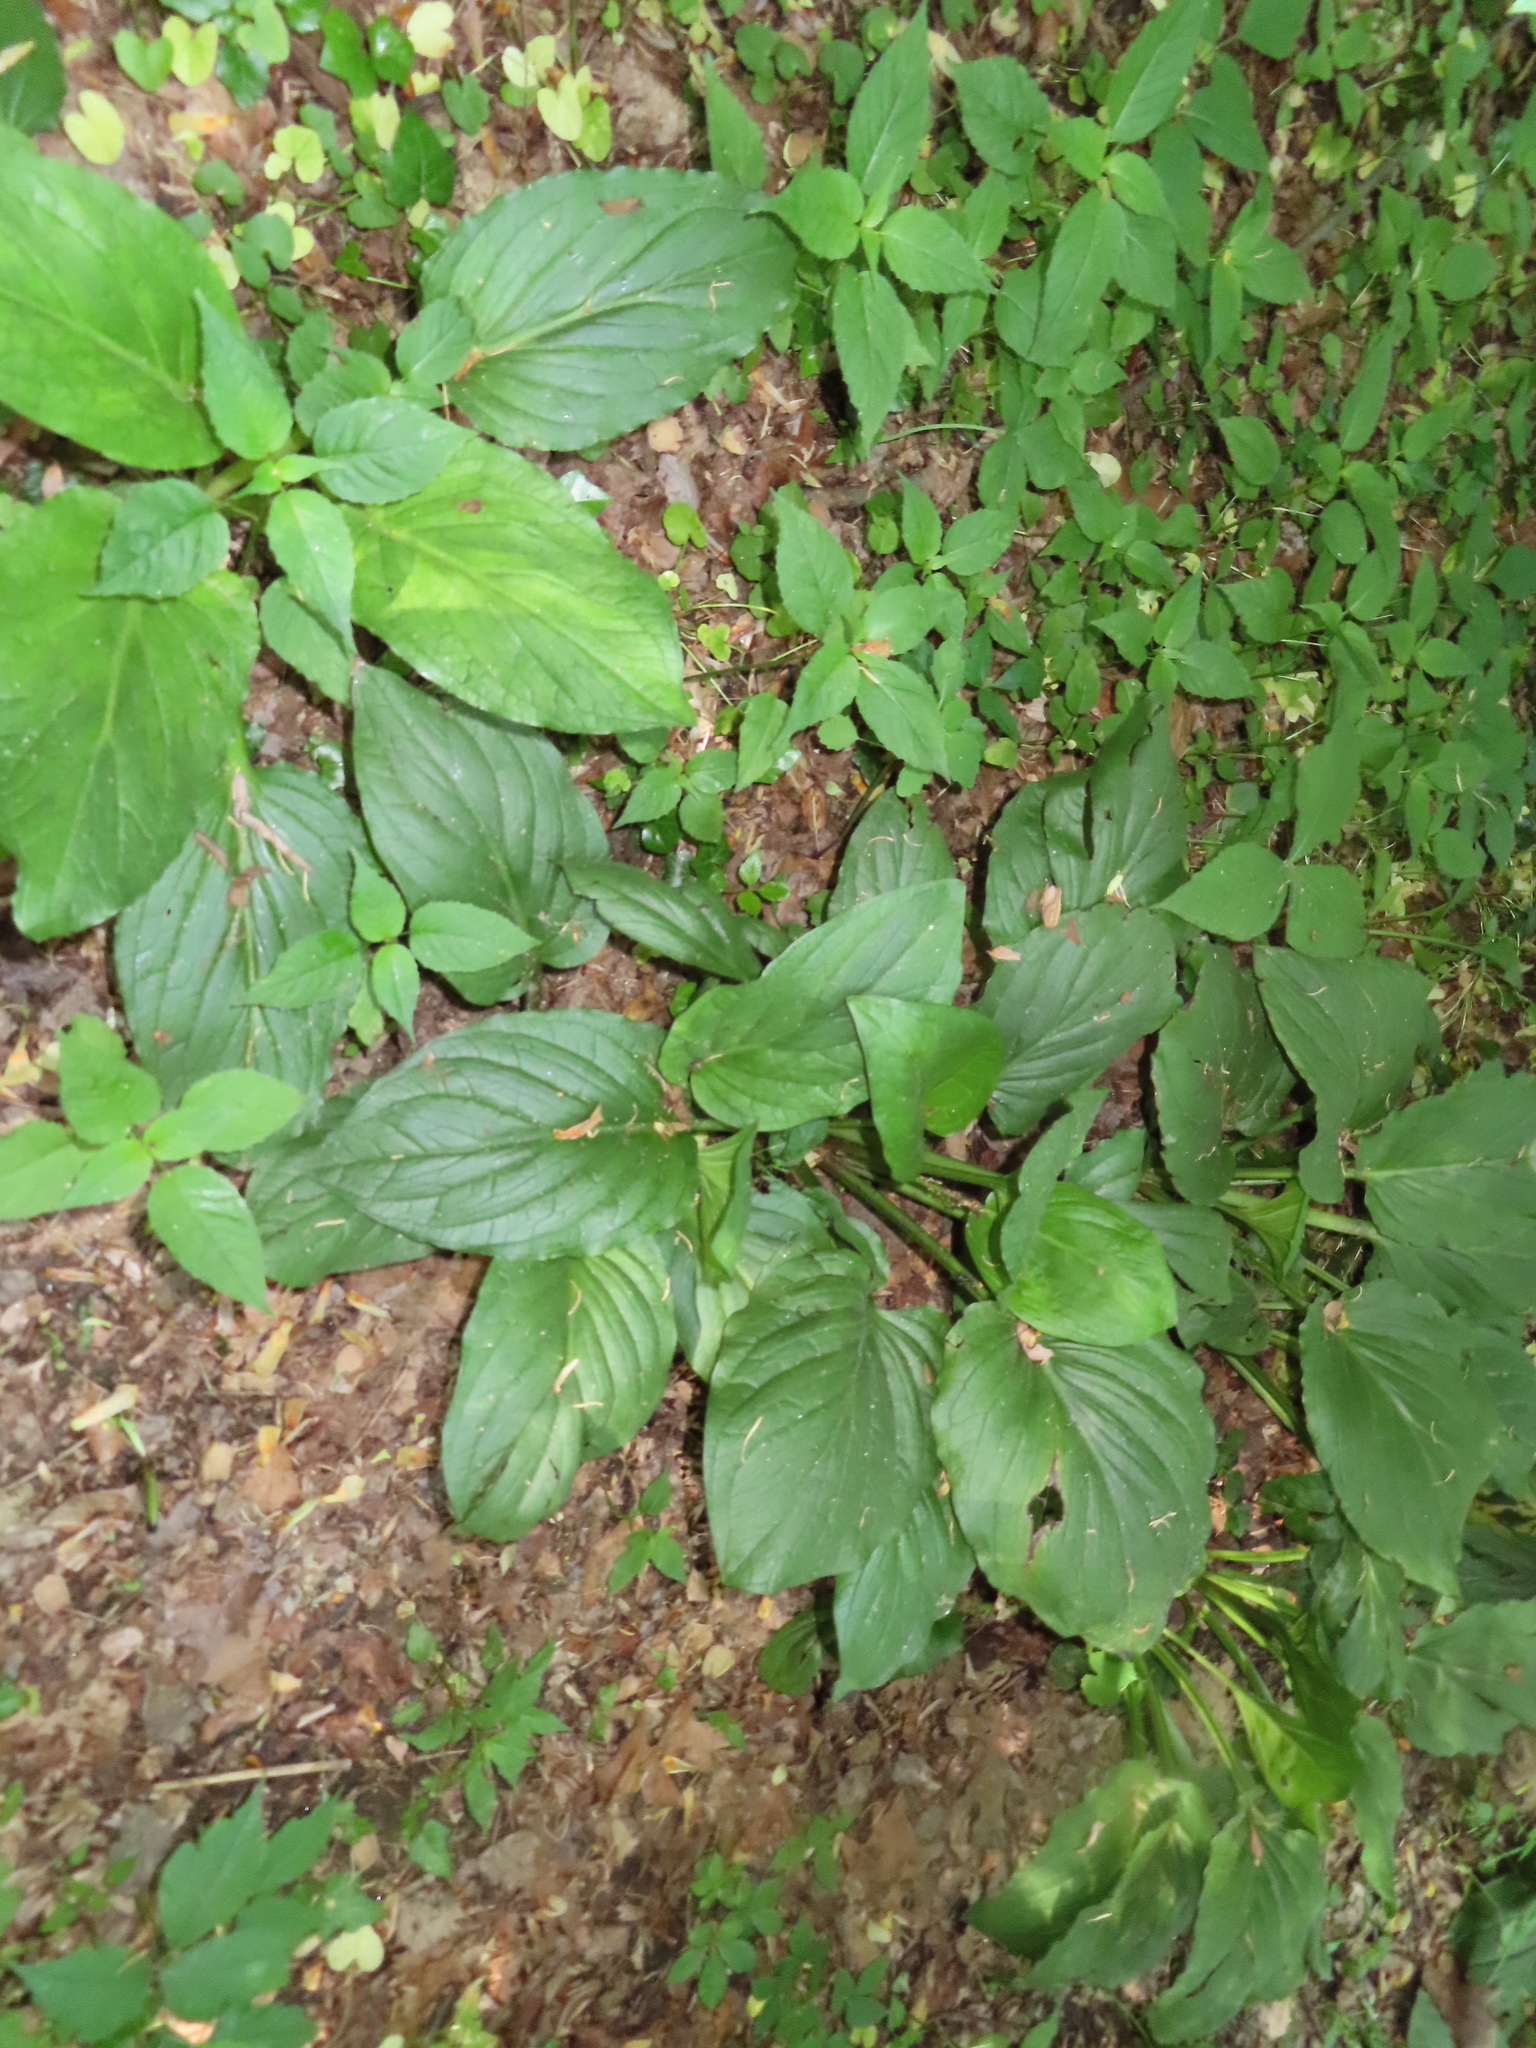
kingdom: Plantae
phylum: Tracheophyta
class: Liliopsida
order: Alismatales
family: Araceae
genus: Symplocarpus
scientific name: Symplocarpus foetidus
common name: Eastern skunk cabbage
